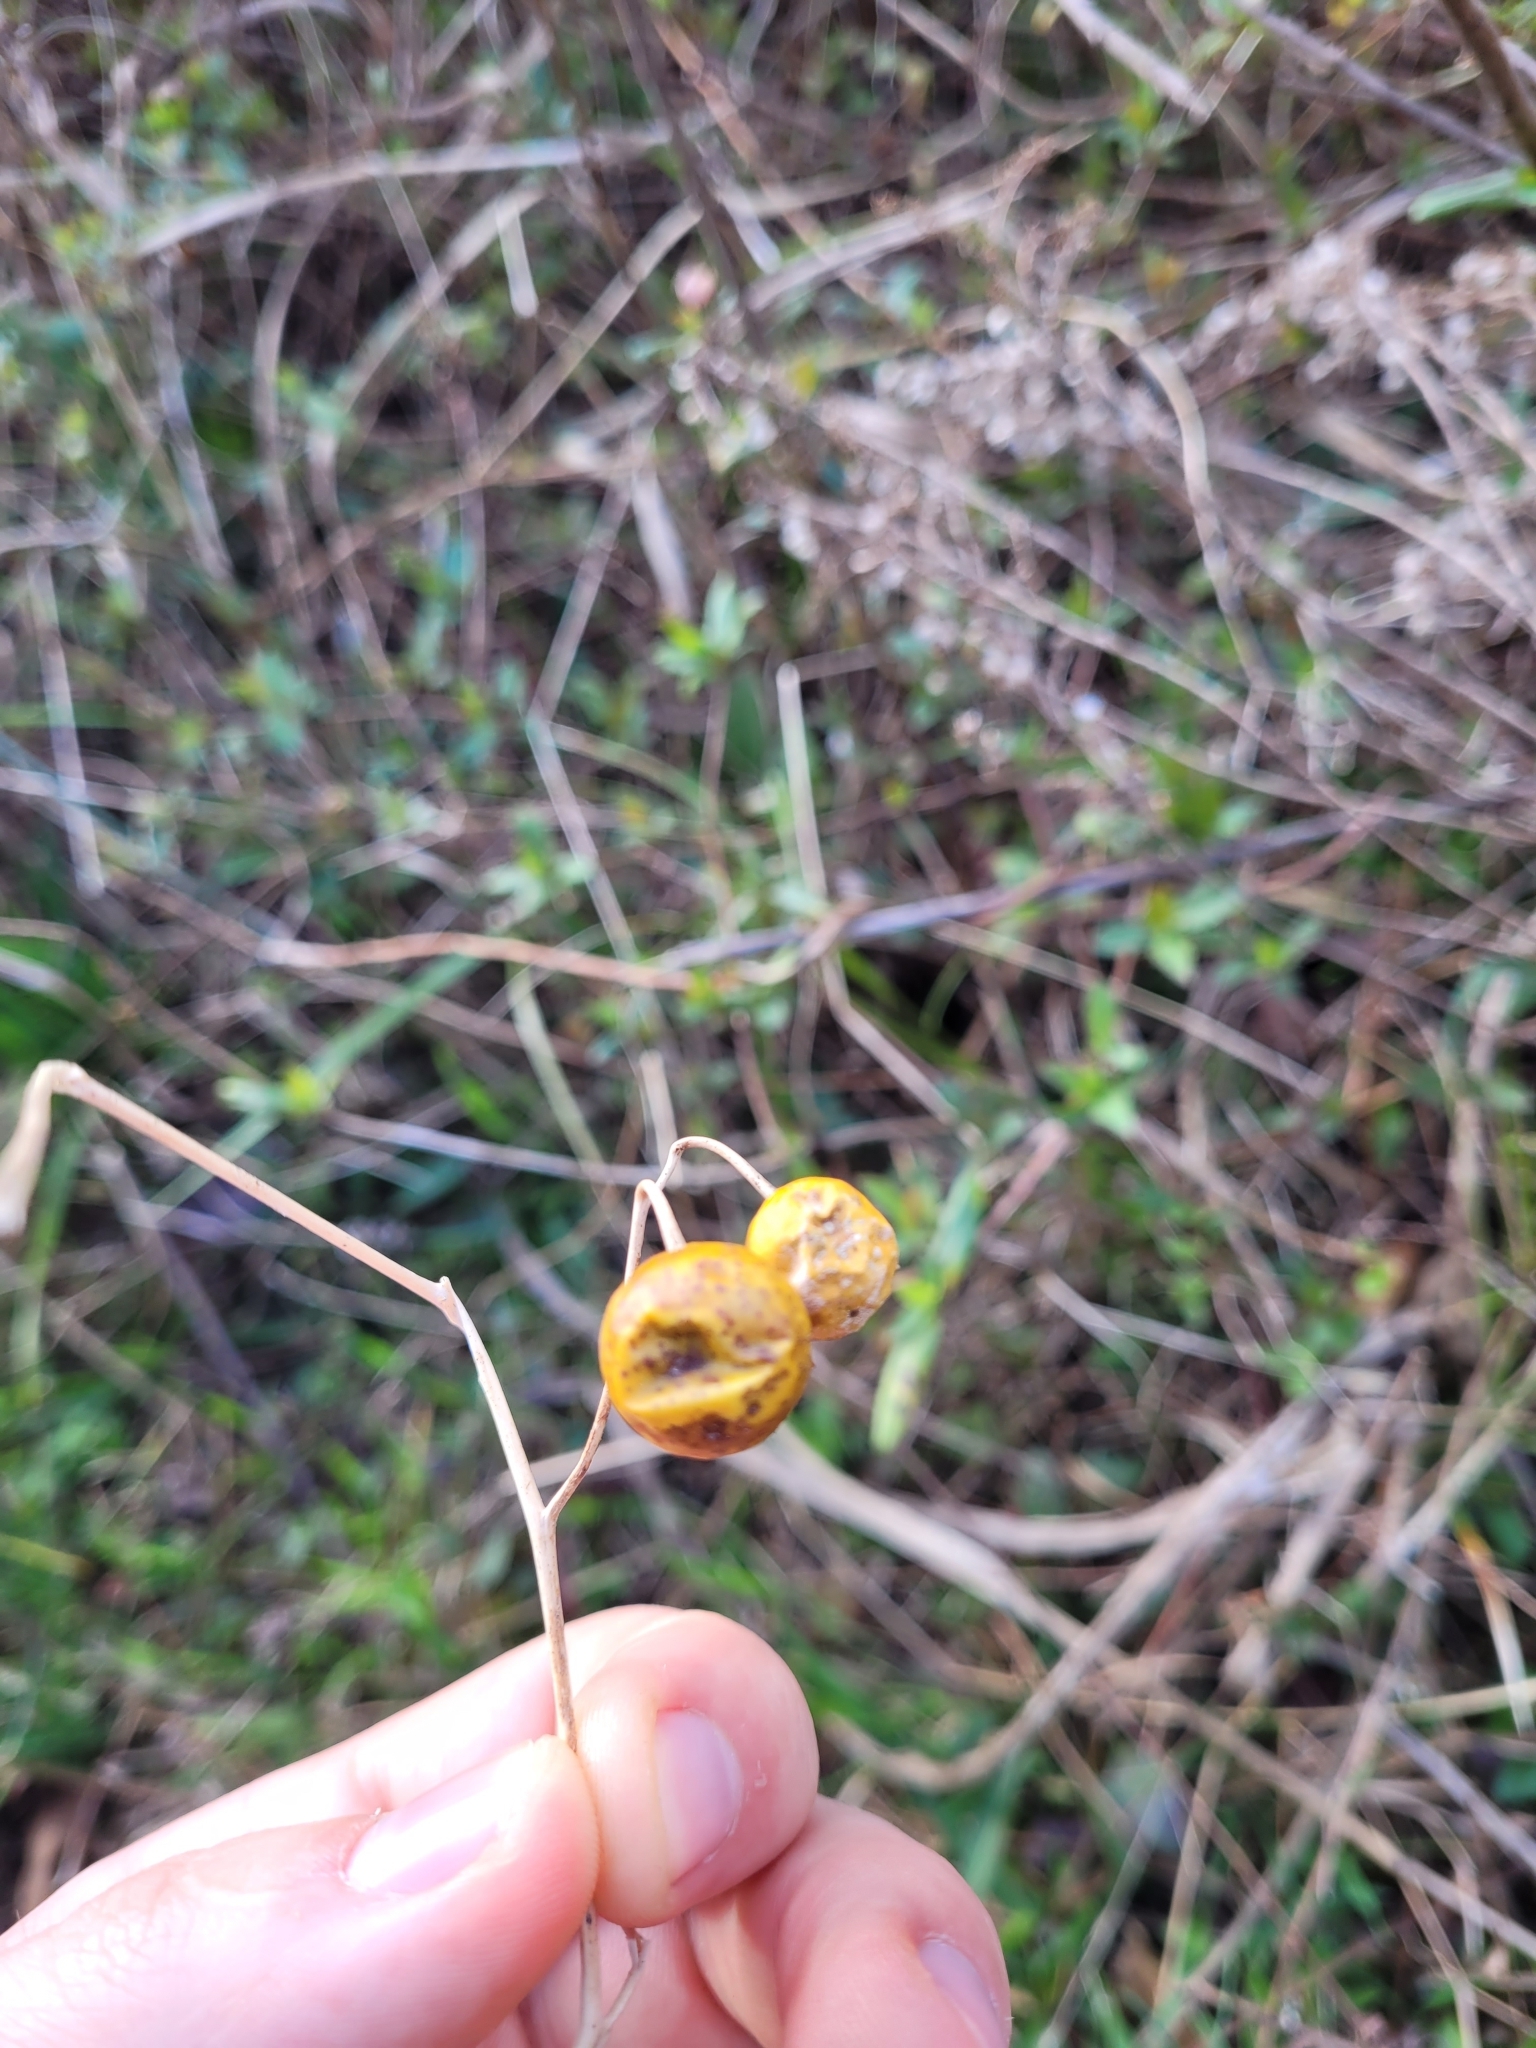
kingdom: Plantae
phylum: Tracheophyta
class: Magnoliopsida
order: Solanales
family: Solanaceae
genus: Solanum
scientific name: Solanum carolinense
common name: Horse-nettle
